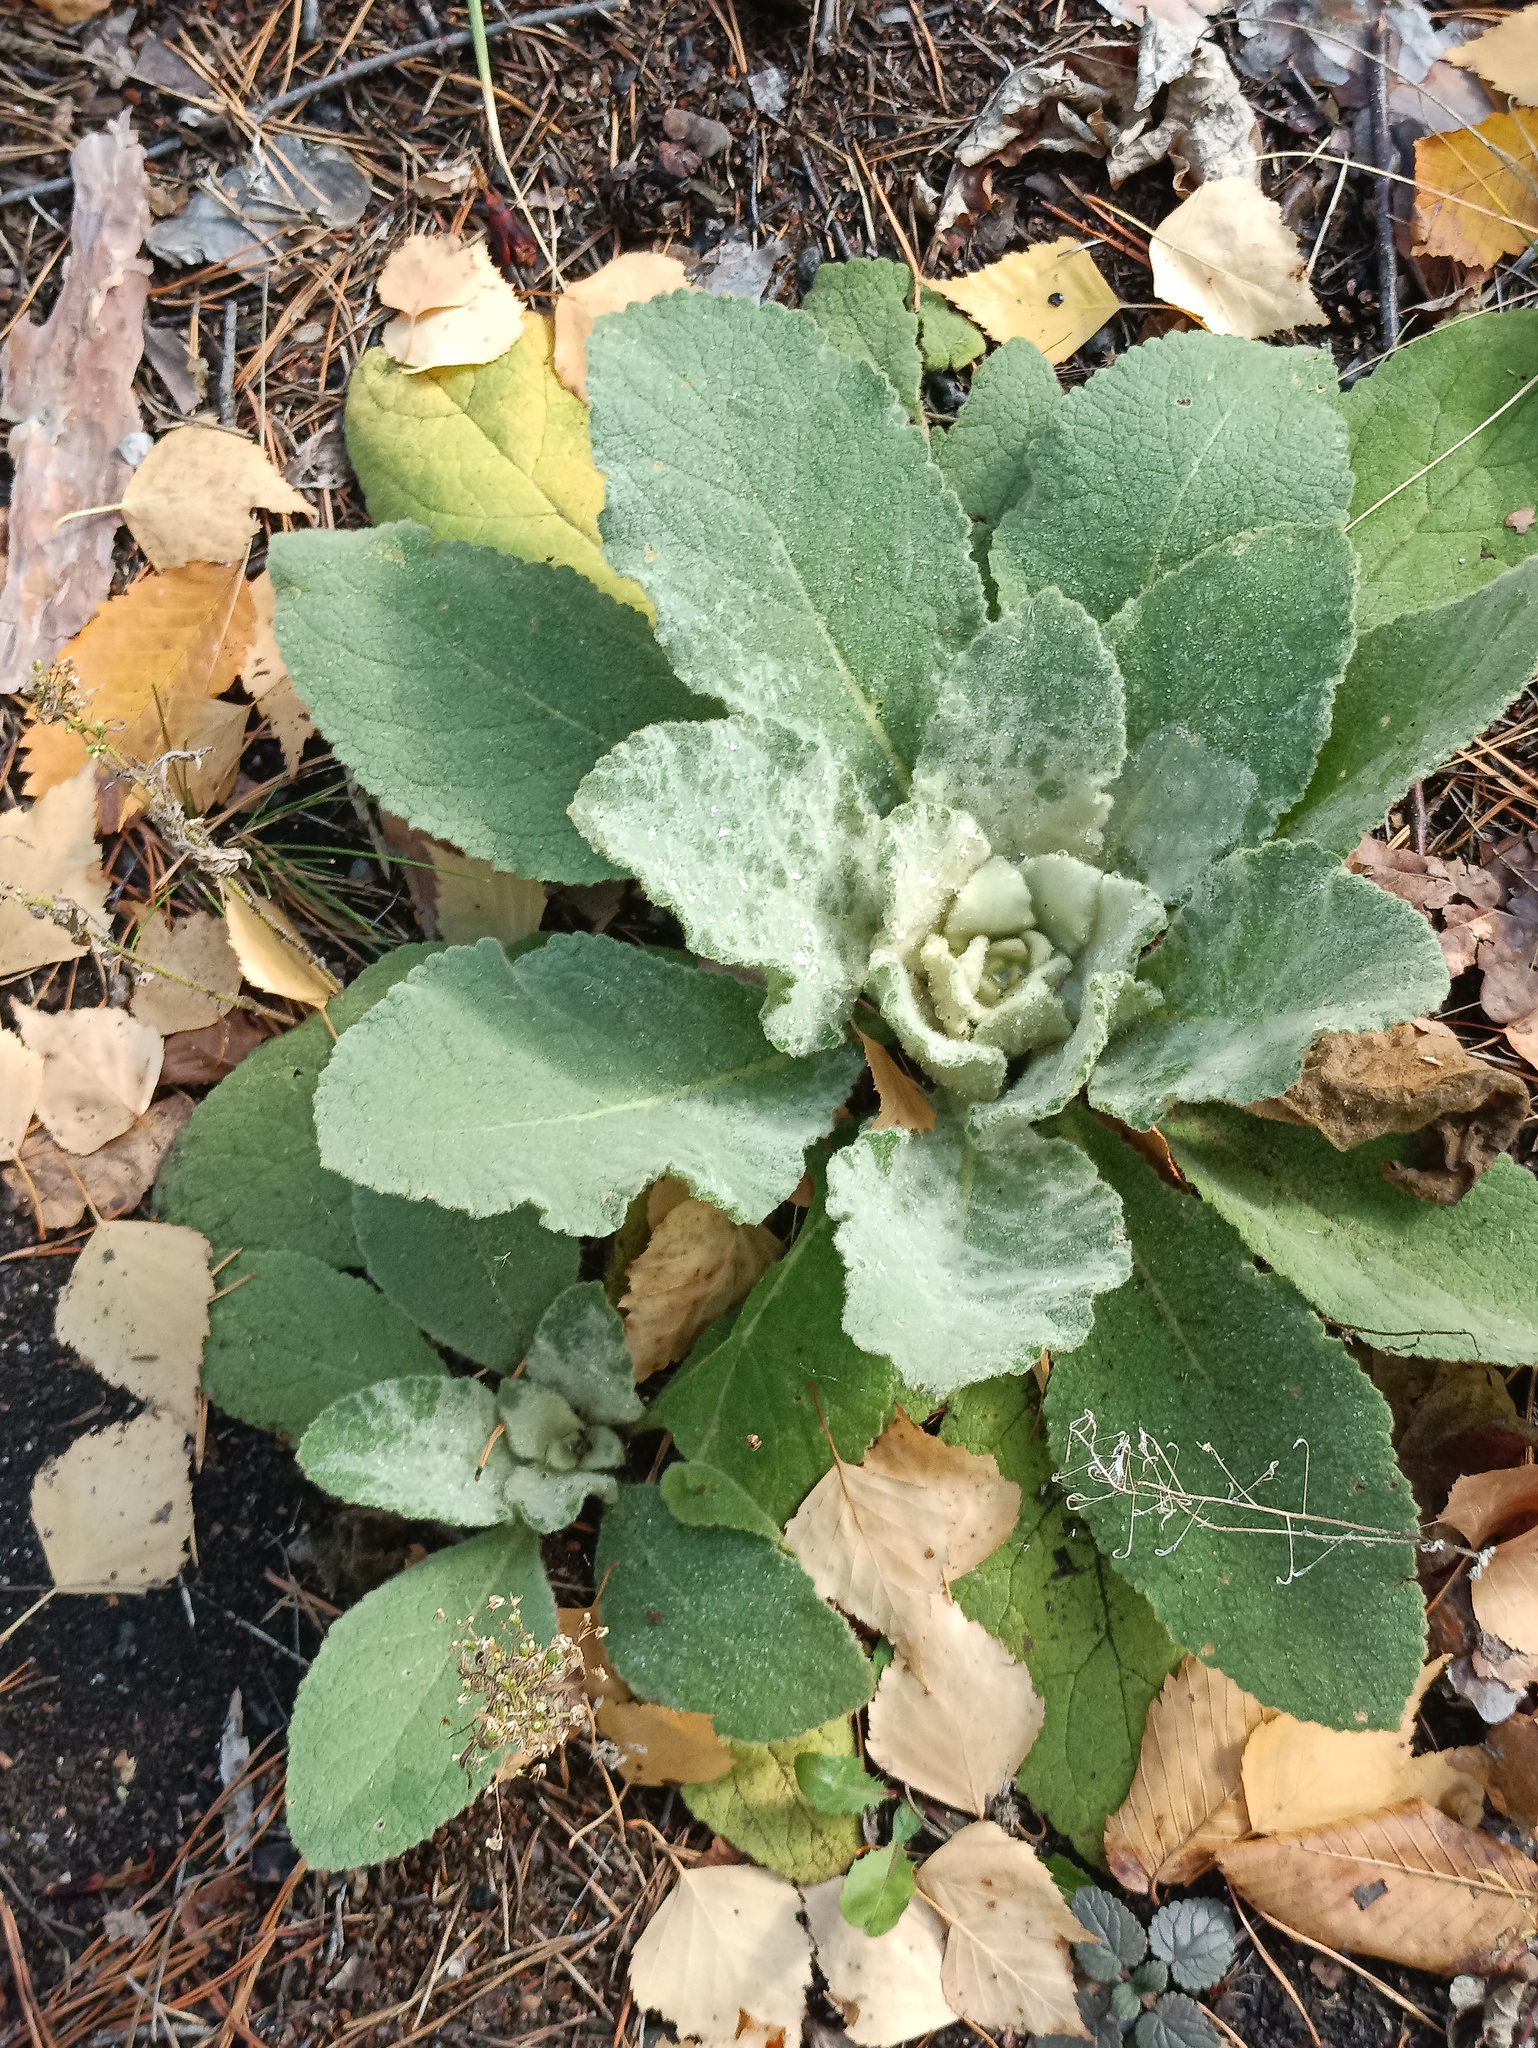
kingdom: Plantae
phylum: Tracheophyta
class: Magnoliopsida
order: Lamiales
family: Scrophulariaceae
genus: Verbascum
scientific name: Verbascum thapsus
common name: Common mullein
